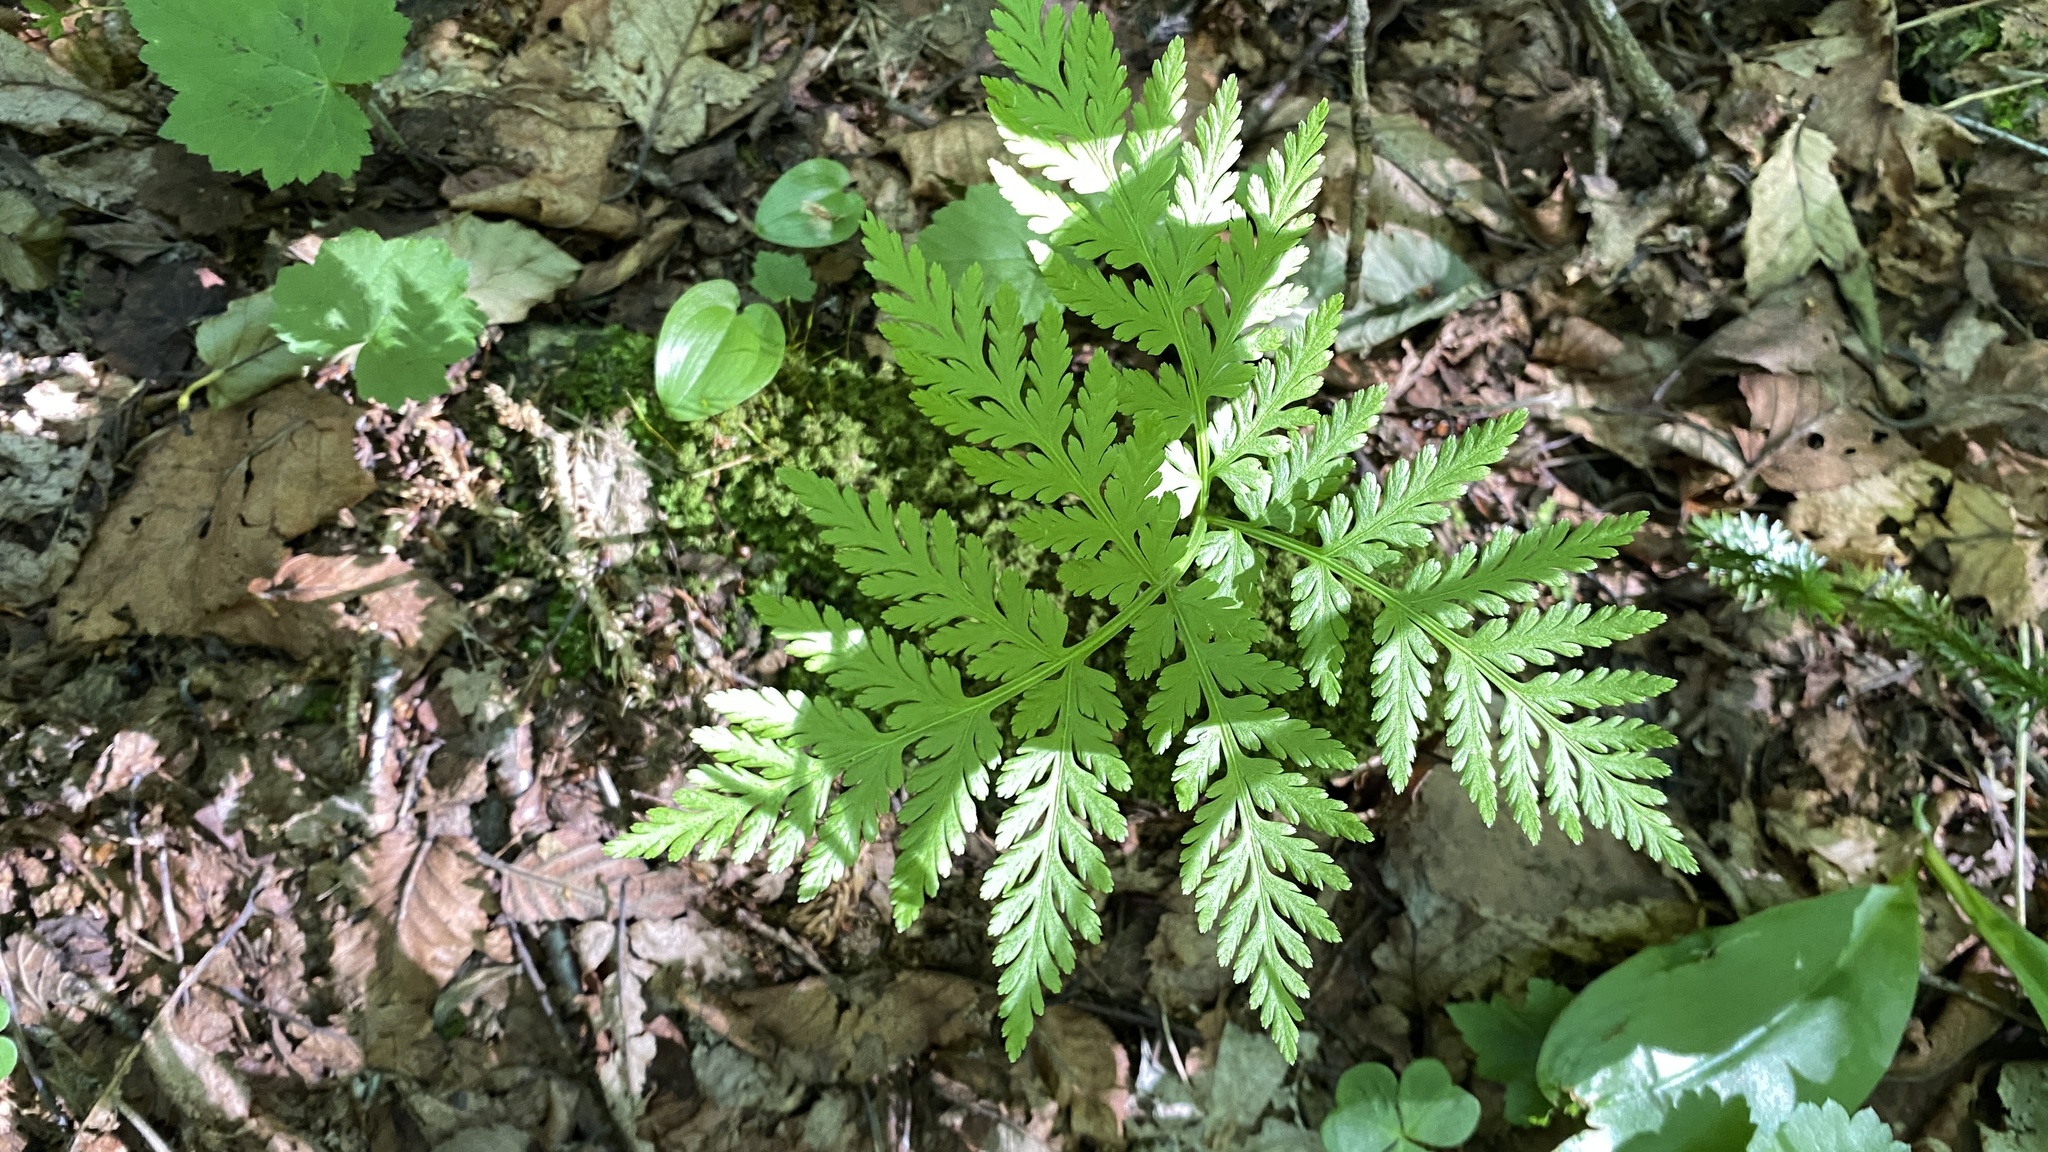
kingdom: Plantae
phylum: Tracheophyta
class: Polypodiopsida
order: Ophioglossales
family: Ophioglossaceae
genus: Botrypus
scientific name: Botrypus virginianus
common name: Common grapefern
